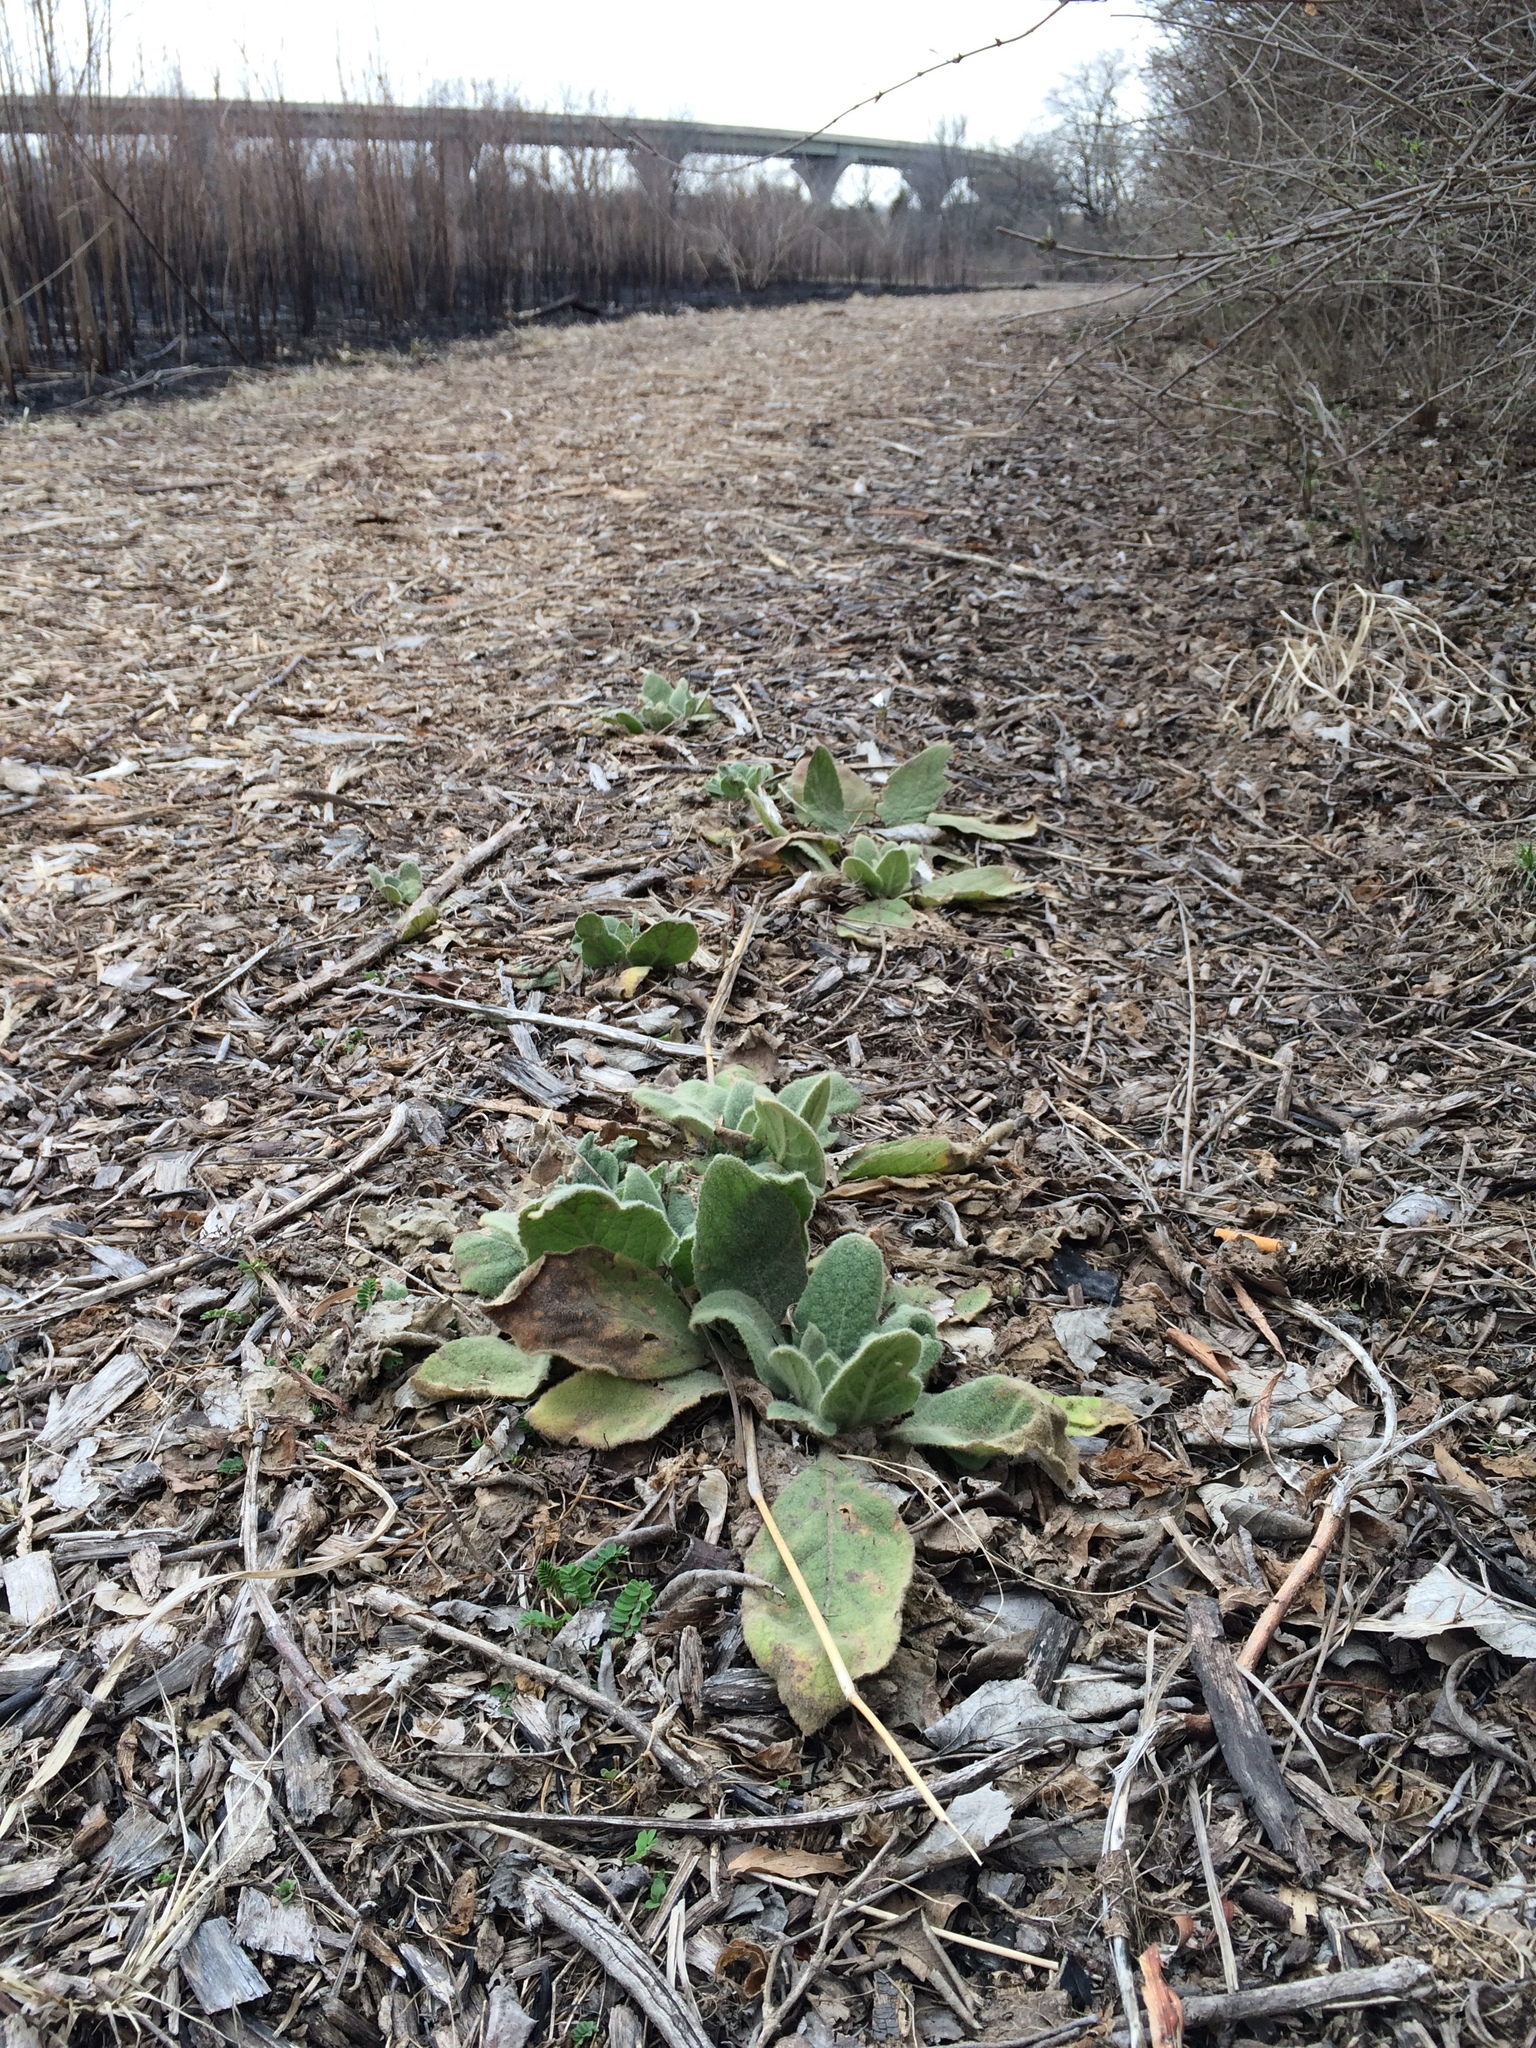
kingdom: Plantae
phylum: Tracheophyta
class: Magnoliopsida
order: Lamiales
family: Scrophulariaceae
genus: Verbascum
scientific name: Verbascum thapsus
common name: Common mullein
